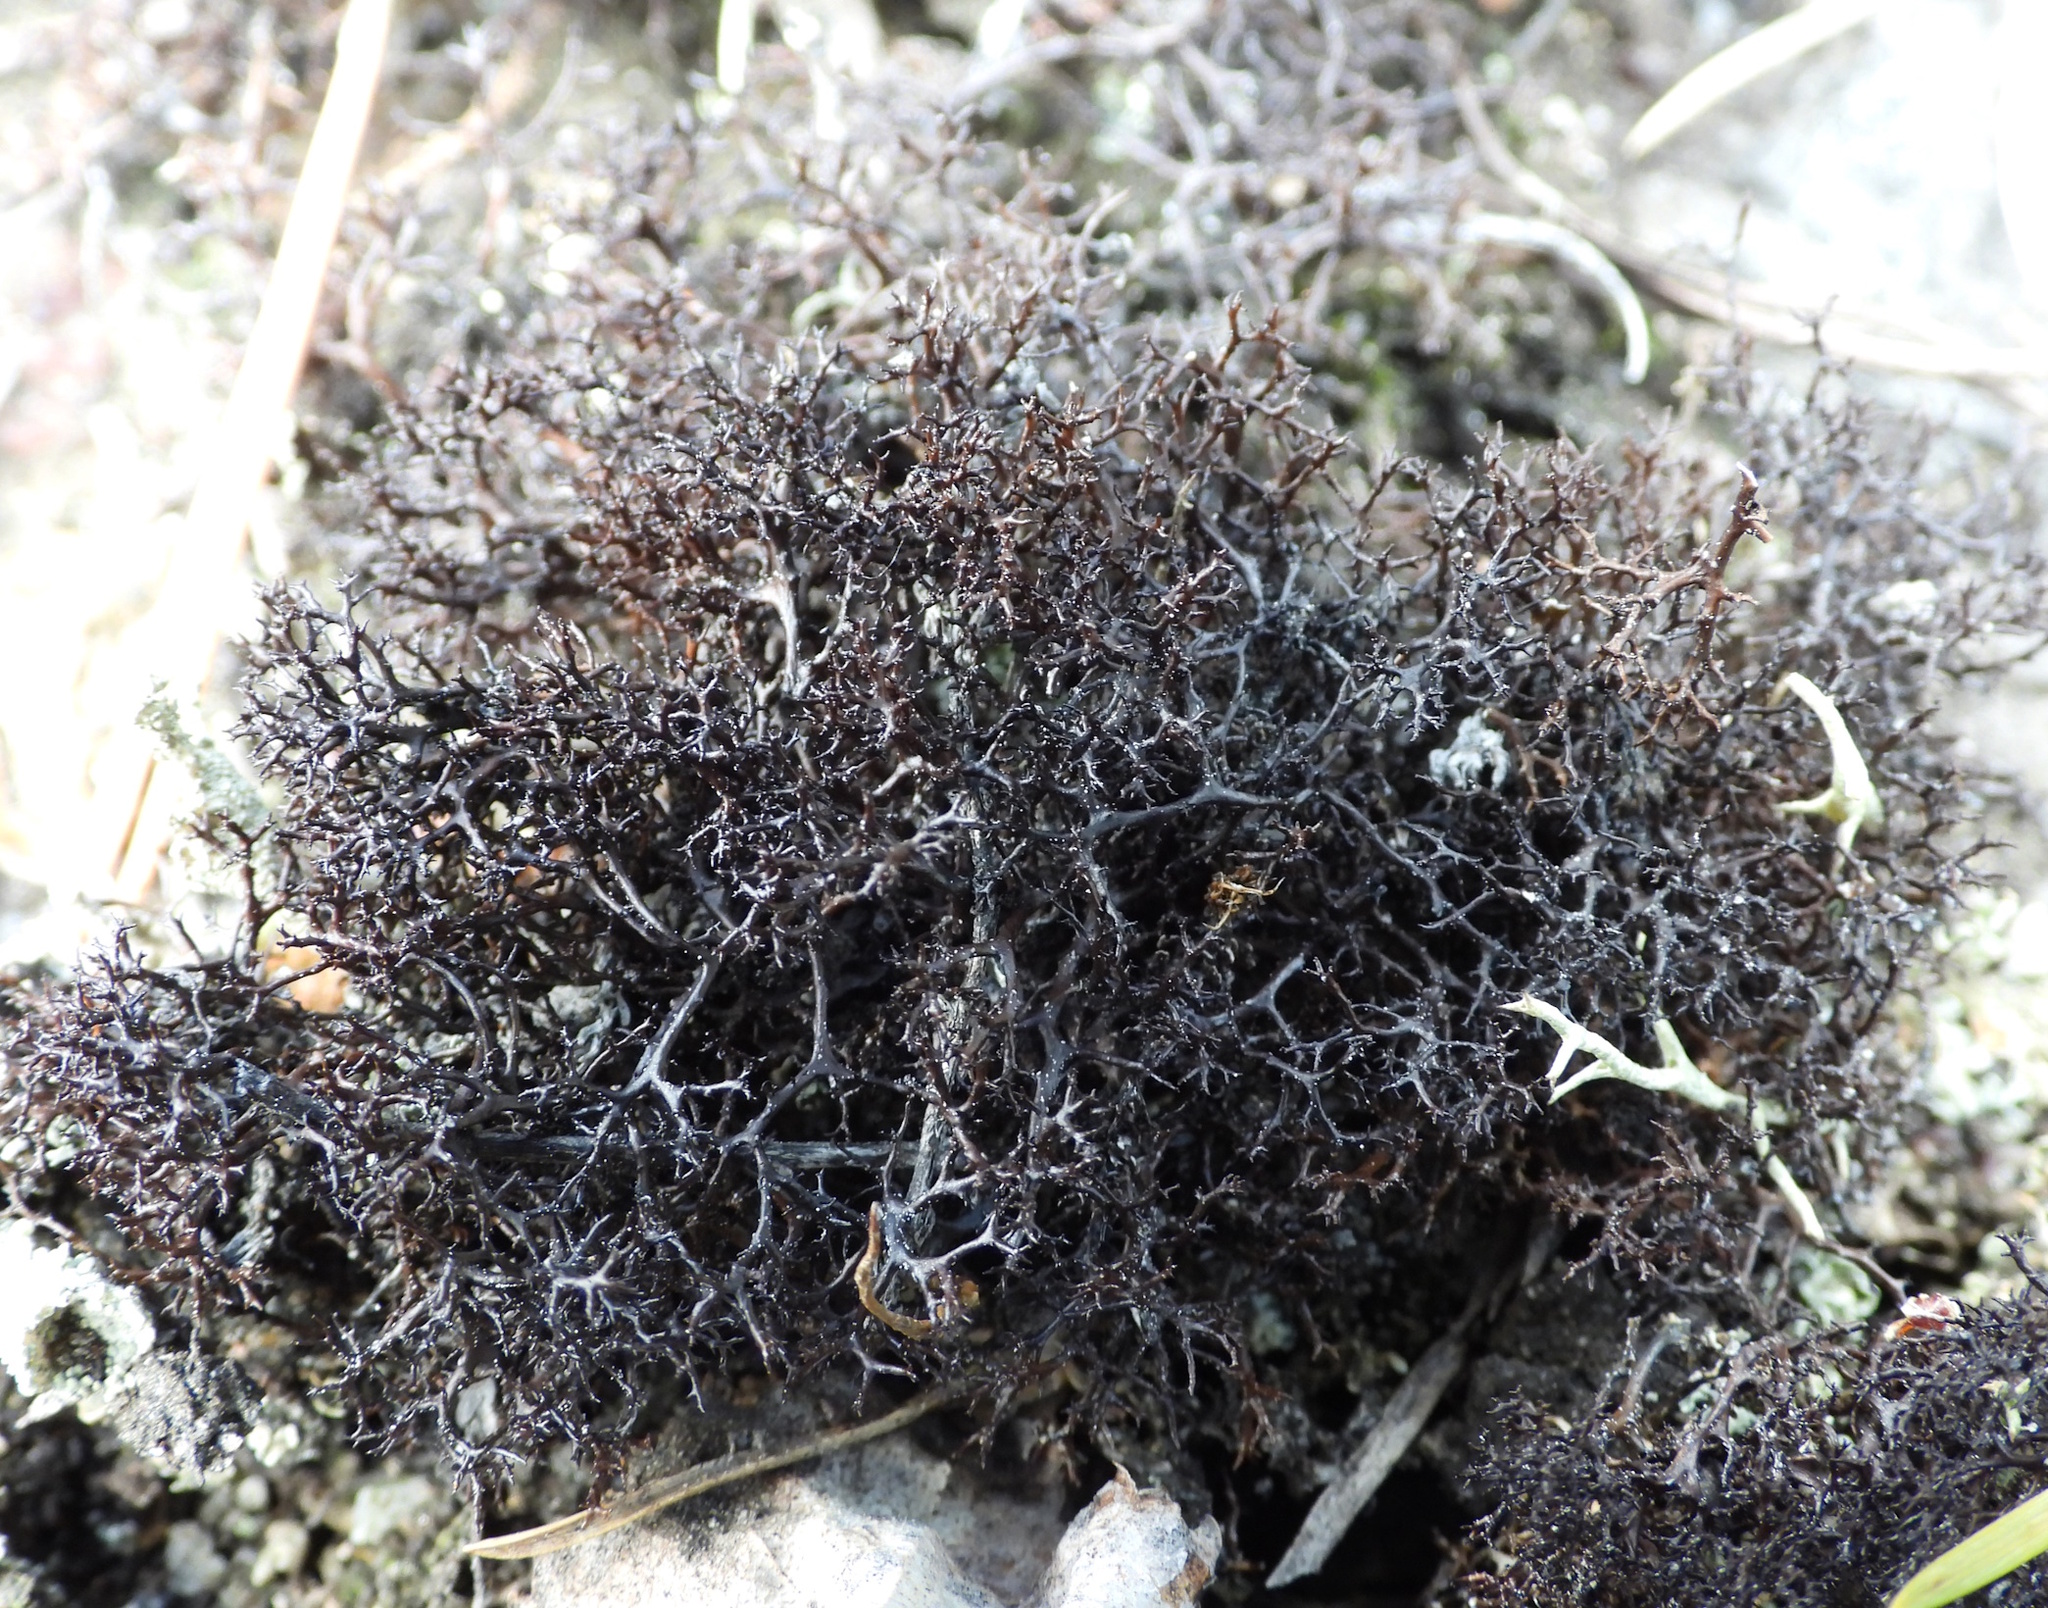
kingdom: Fungi
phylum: Ascomycota
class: Lecanoromycetes
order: Lecanorales
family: Parmeliaceae
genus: Cetraria
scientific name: Cetraria muricata
